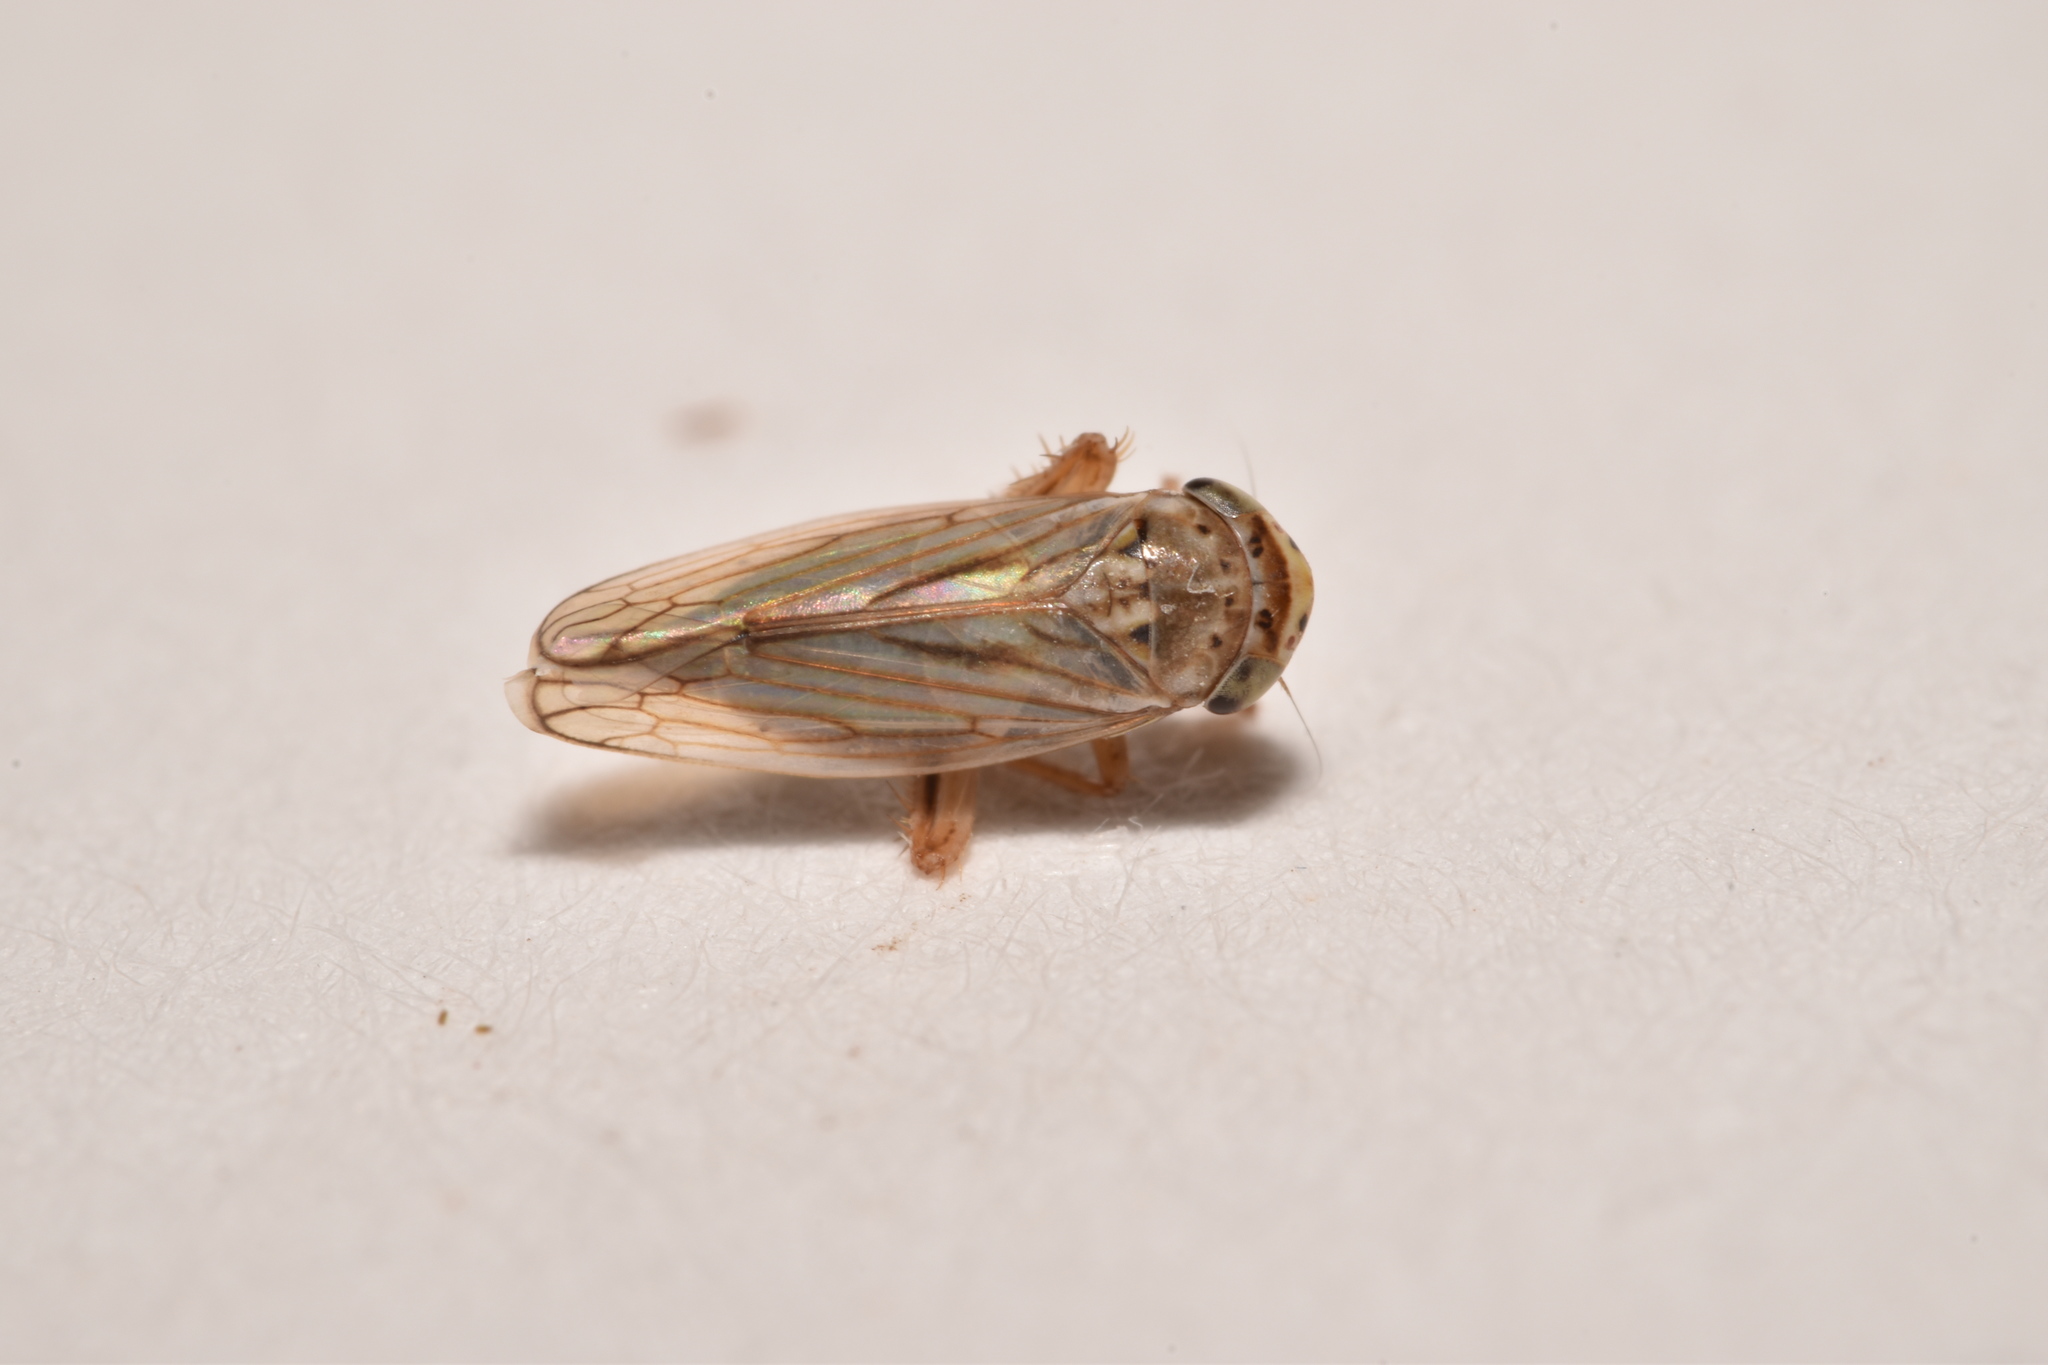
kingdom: Animalia
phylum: Arthropoda
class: Insecta
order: Hemiptera
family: Cicadellidae
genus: Exitianus
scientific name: Exitianus exitiosus
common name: Gray lawn leafhopper
